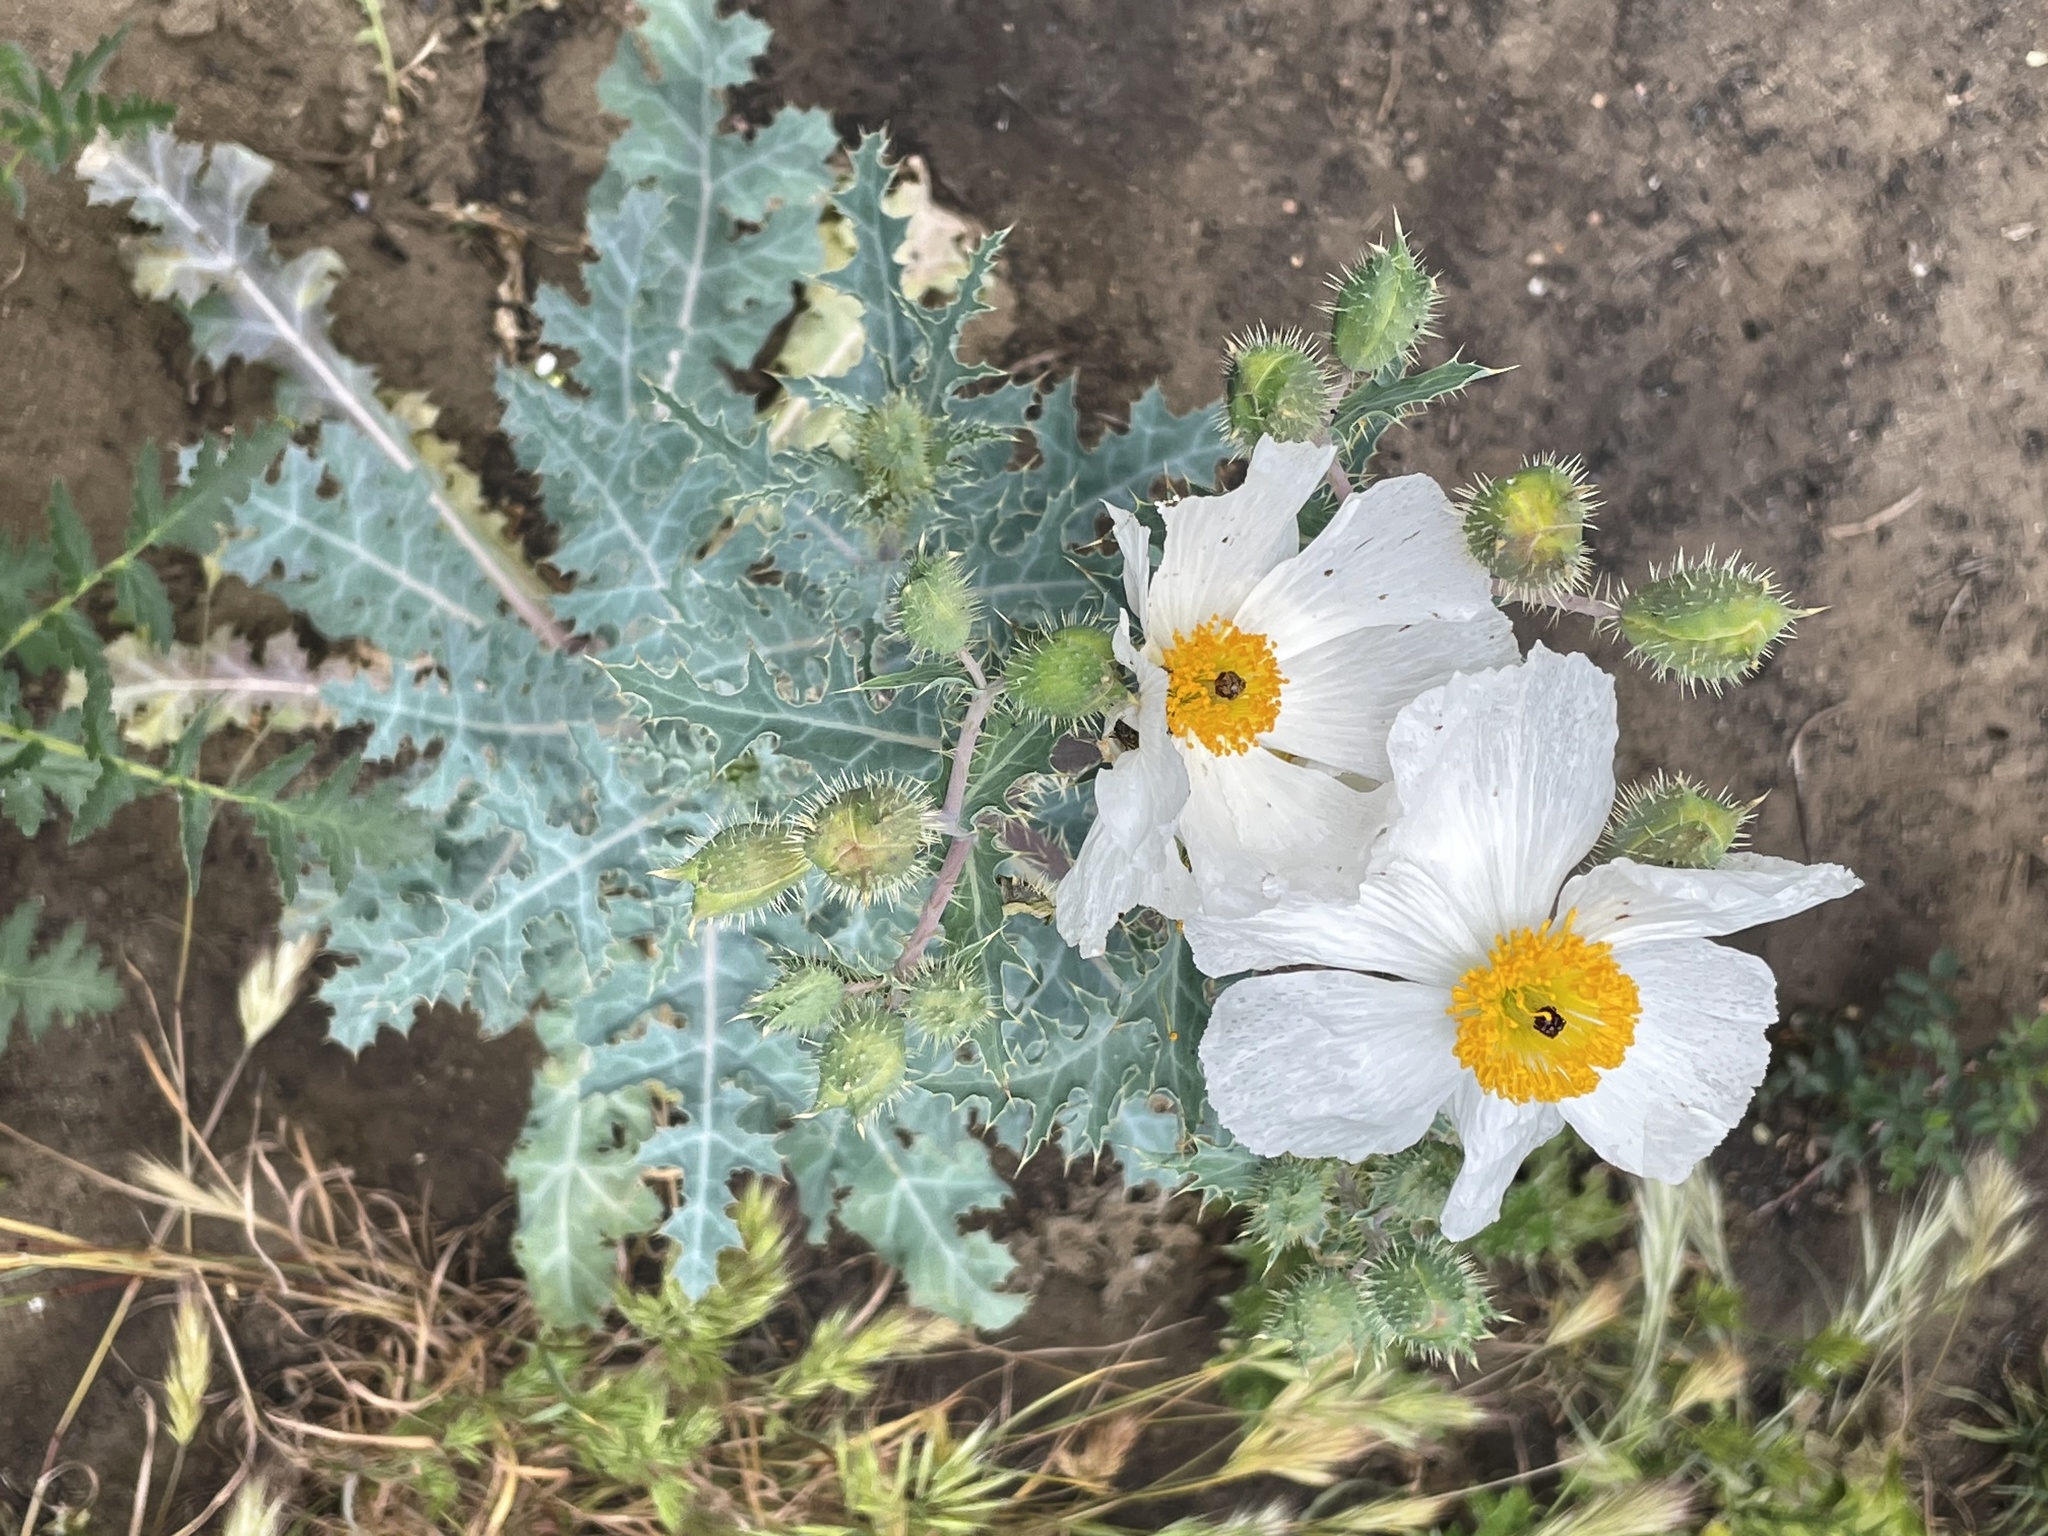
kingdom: Plantae
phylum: Tracheophyta
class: Magnoliopsida
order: Ranunculales
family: Papaveraceae
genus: Argemone
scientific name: Argemone munita
